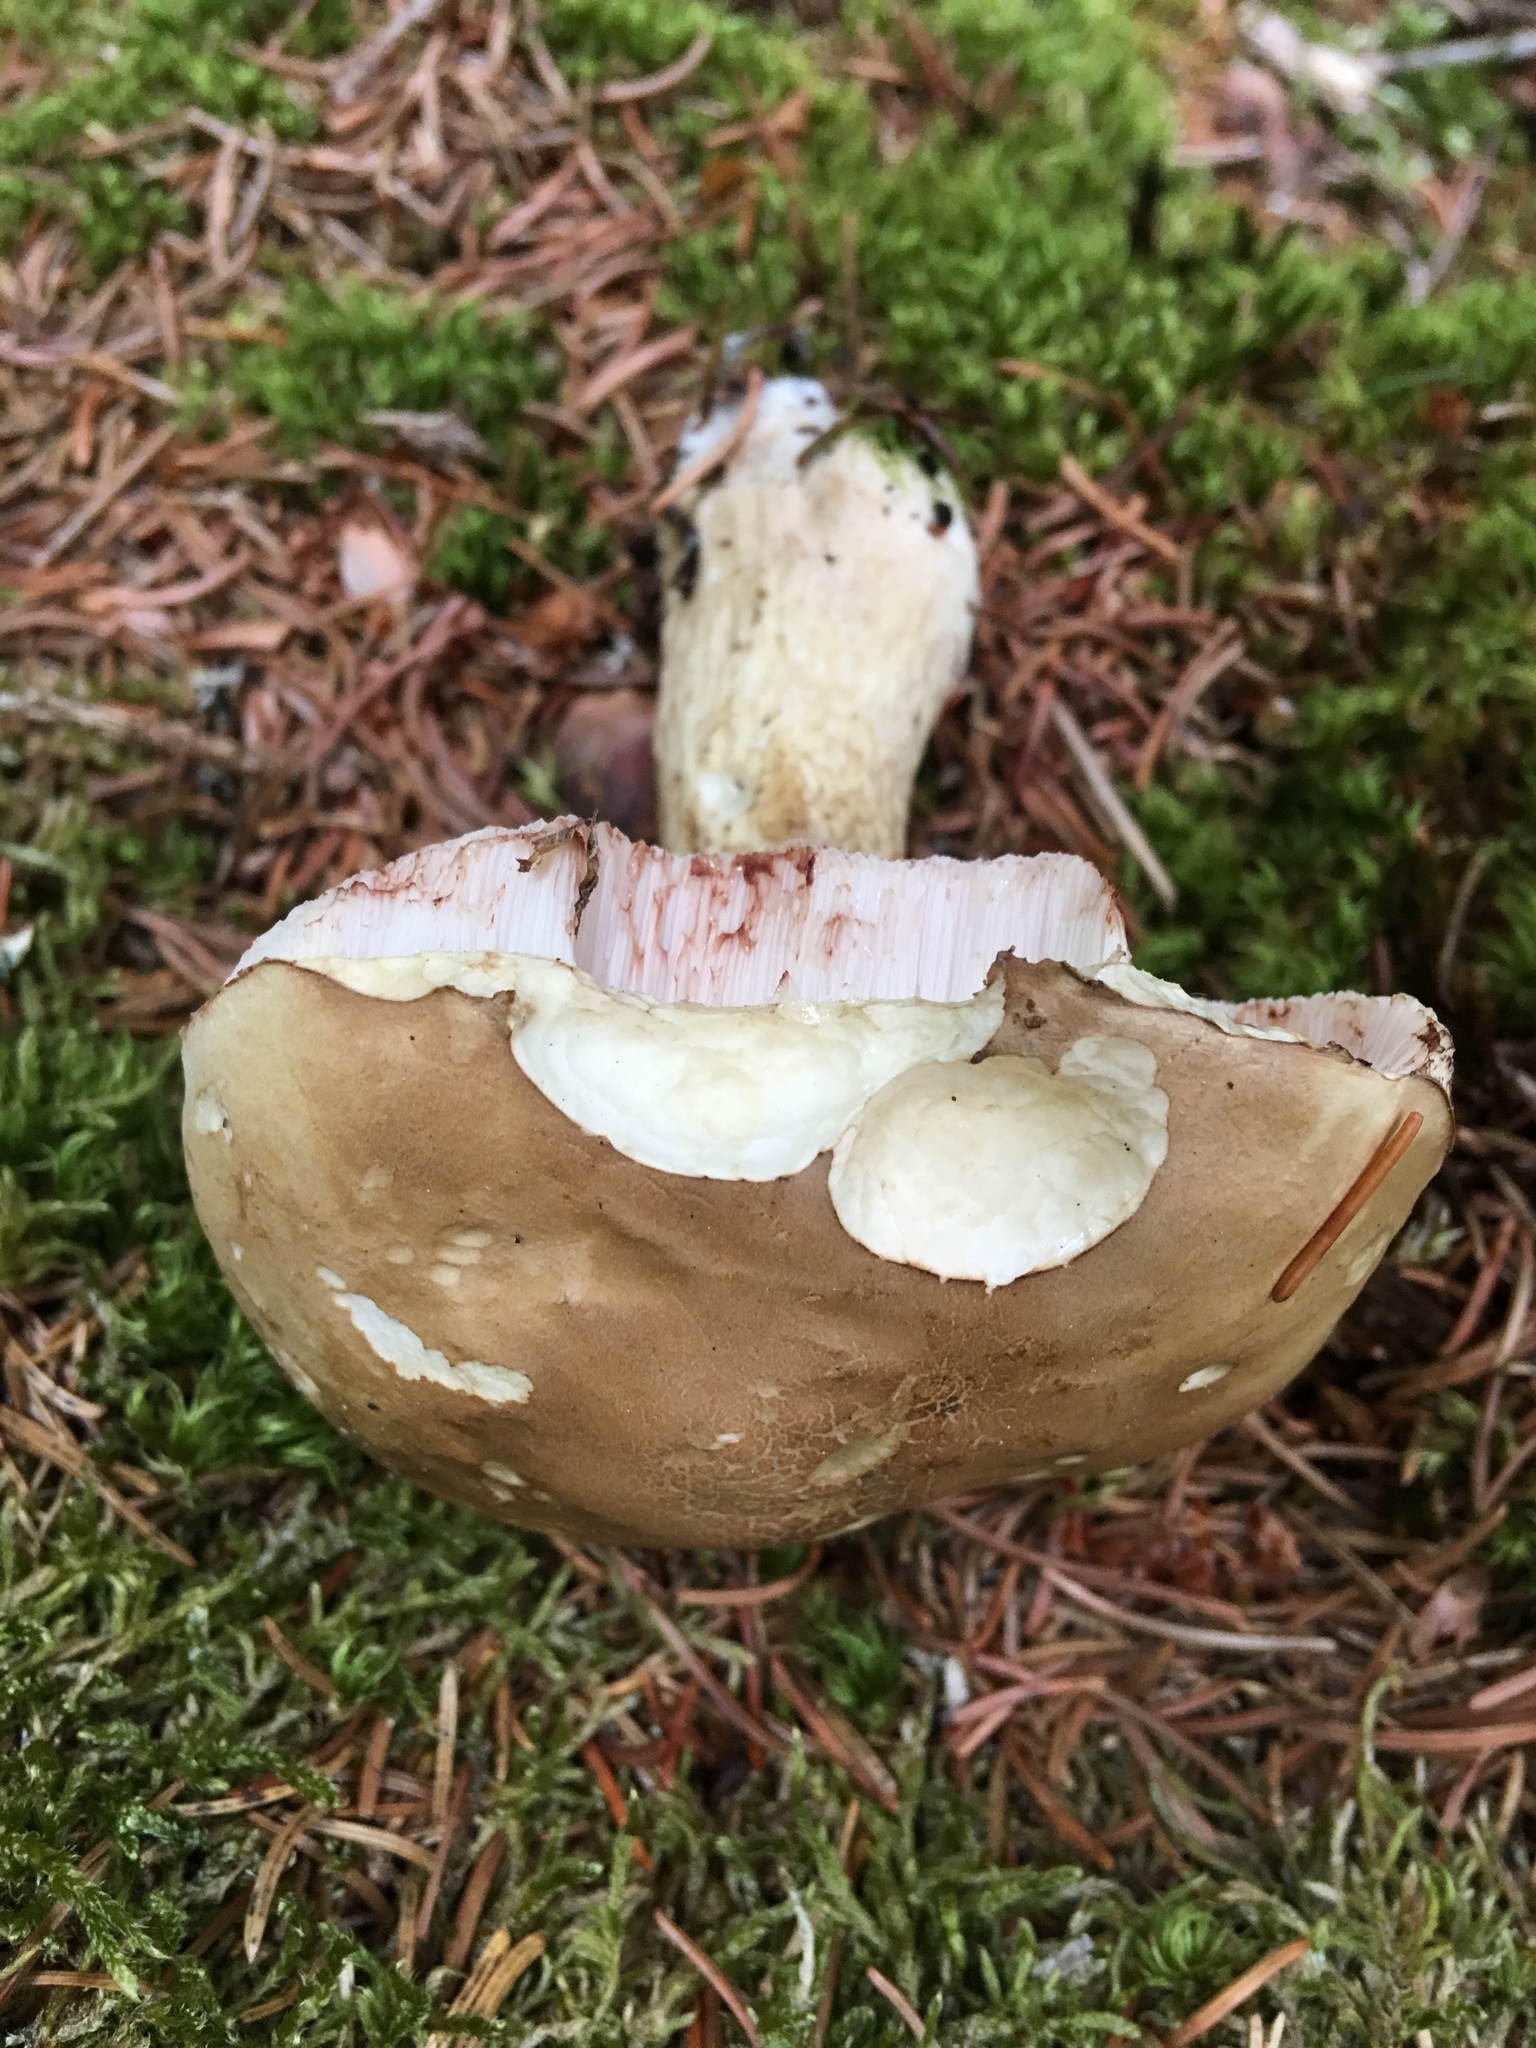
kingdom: Fungi
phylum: Basidiomycota
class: Agaricomycetes
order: Boletales
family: Boletaceae
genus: Tylopilus
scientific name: Tylopilus felleus
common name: Bitter bolete
